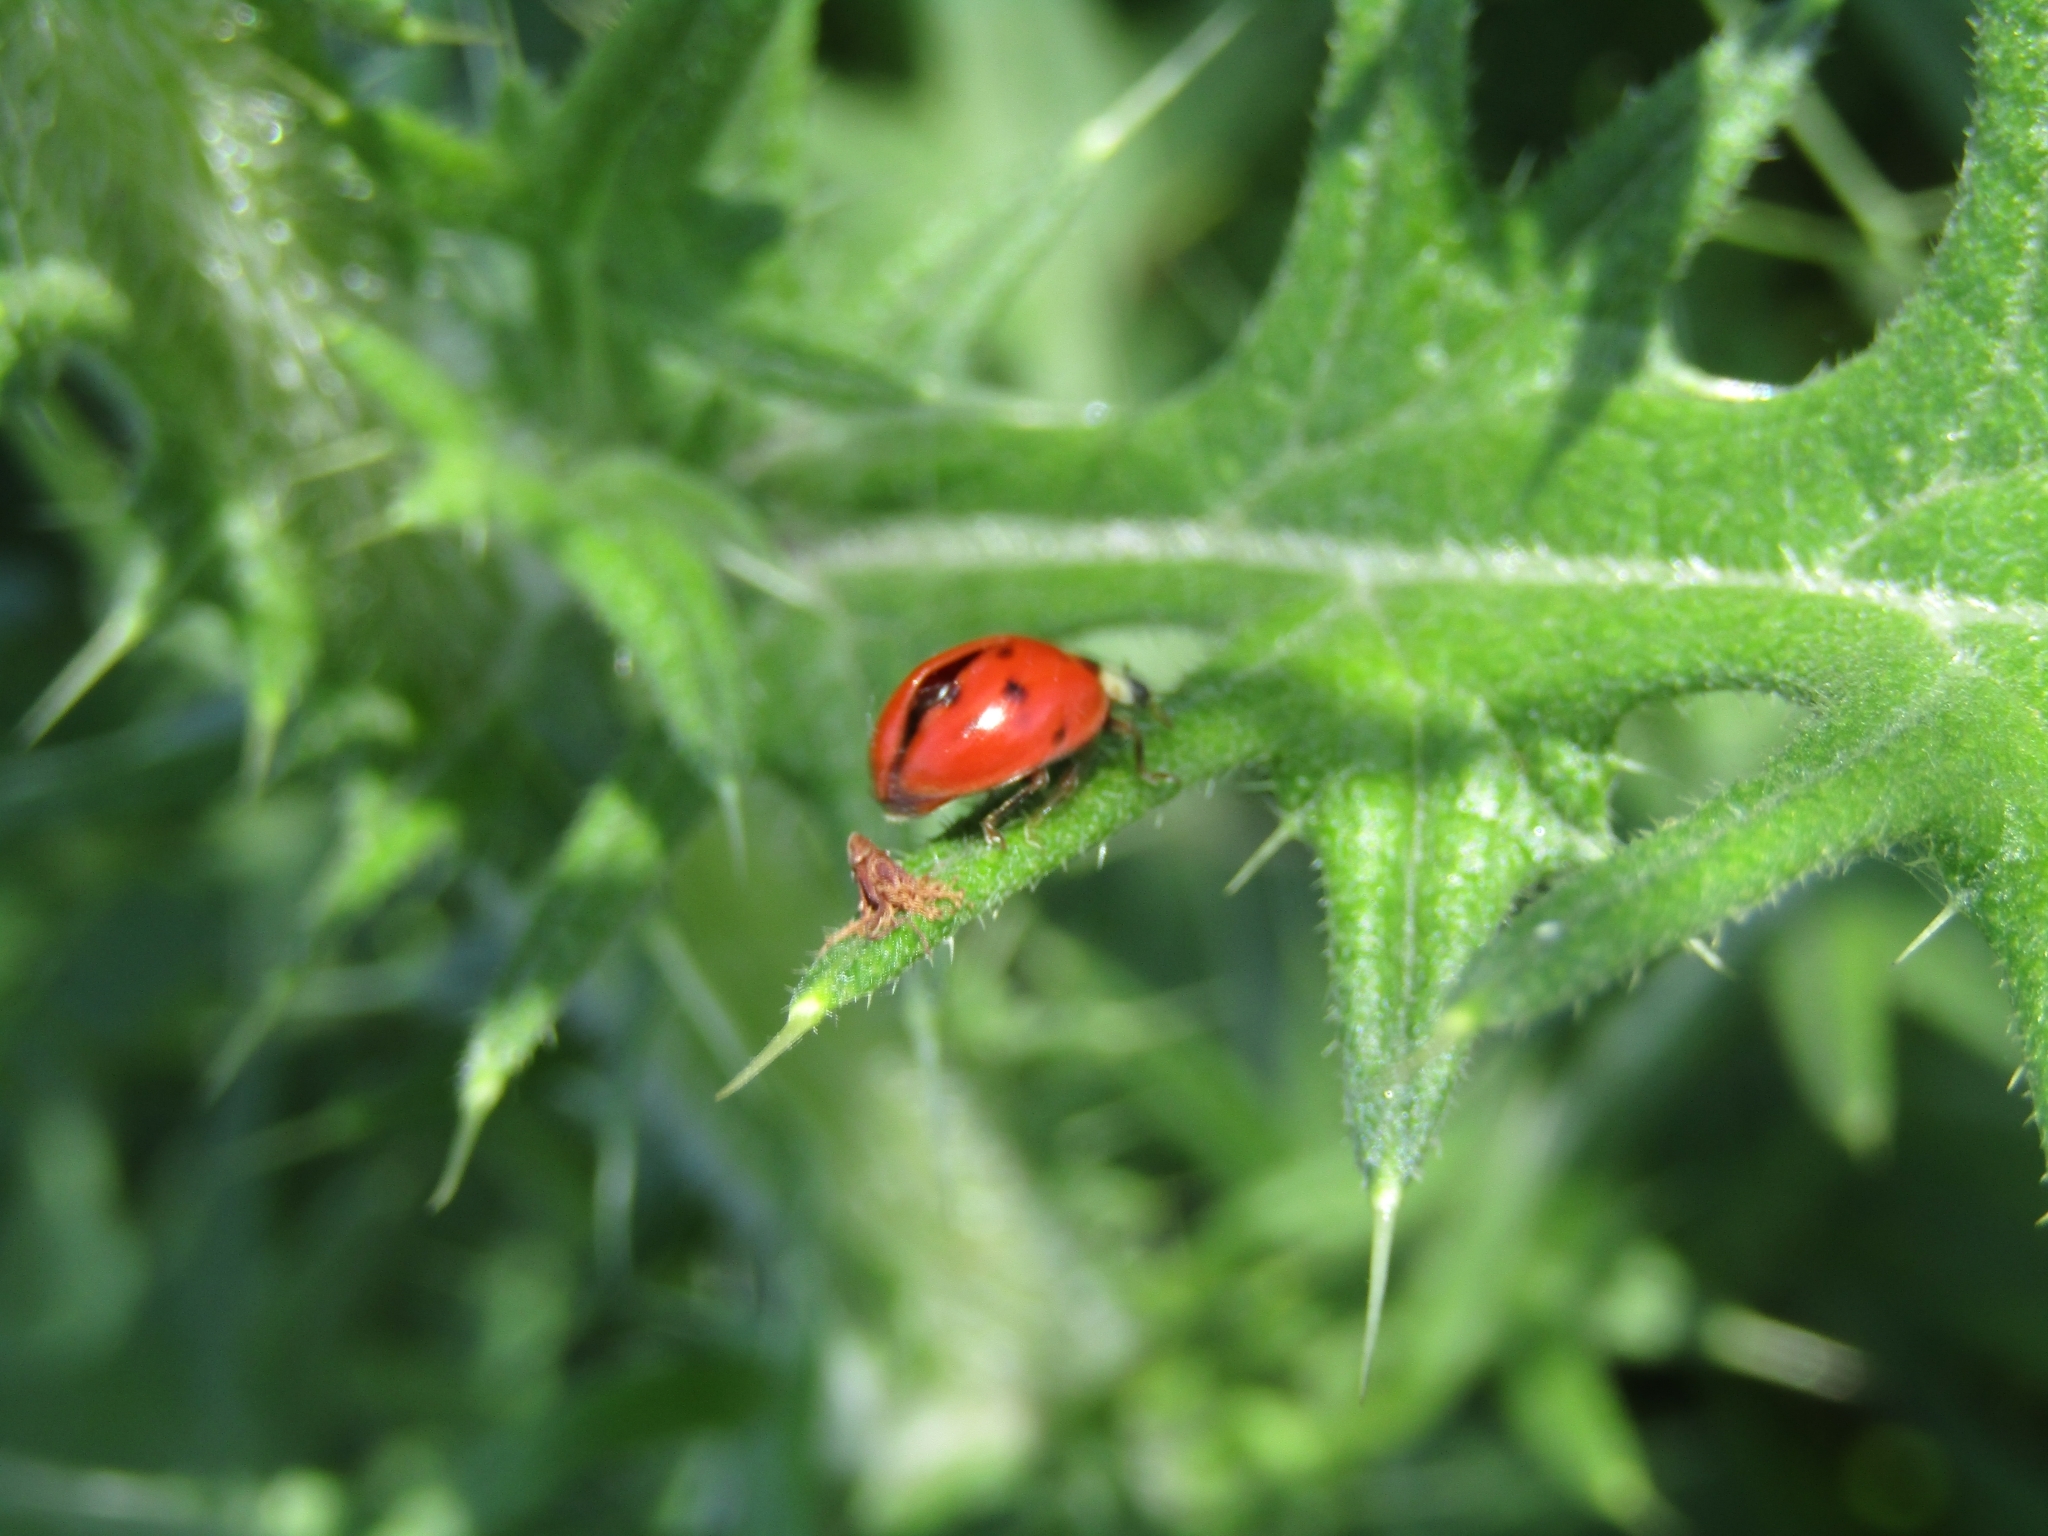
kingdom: Animalia
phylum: Arthropoda
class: Insecta
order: Coleoptera
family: Coccinellidae
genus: Harmonia
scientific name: Harmonia axyridis
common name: Harlequin ladybird
